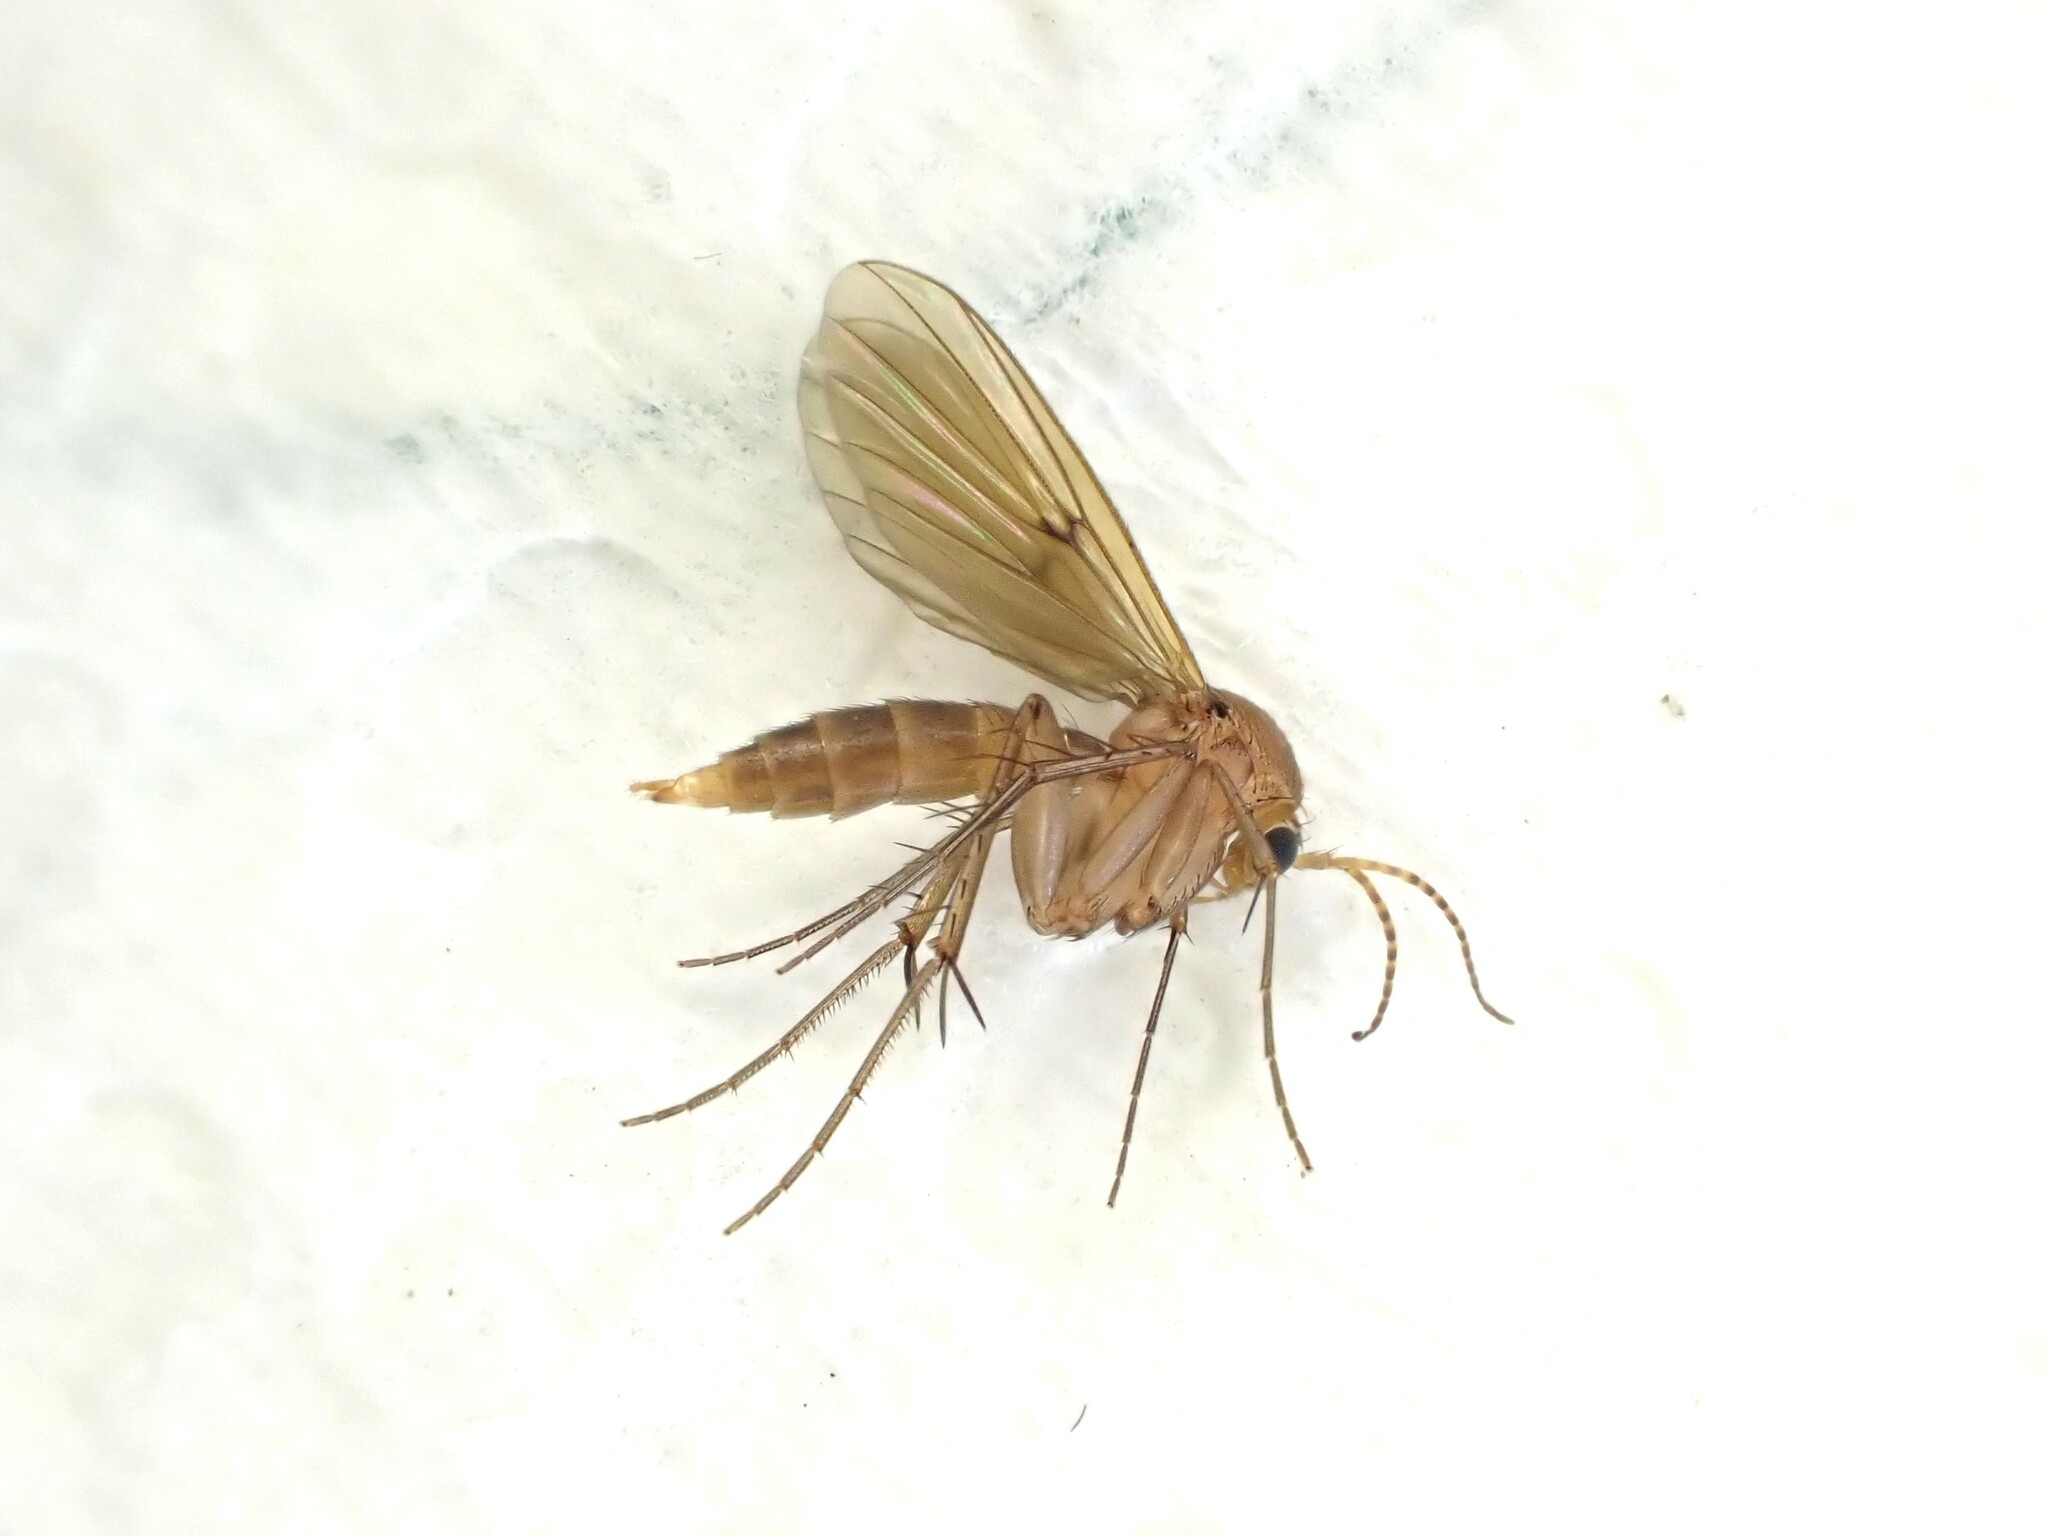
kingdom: Animalia
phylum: Arthropoda
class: Insecta
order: Diptera
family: Mycetophilidae
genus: Mycetophila
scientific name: Mycetophila fagi
